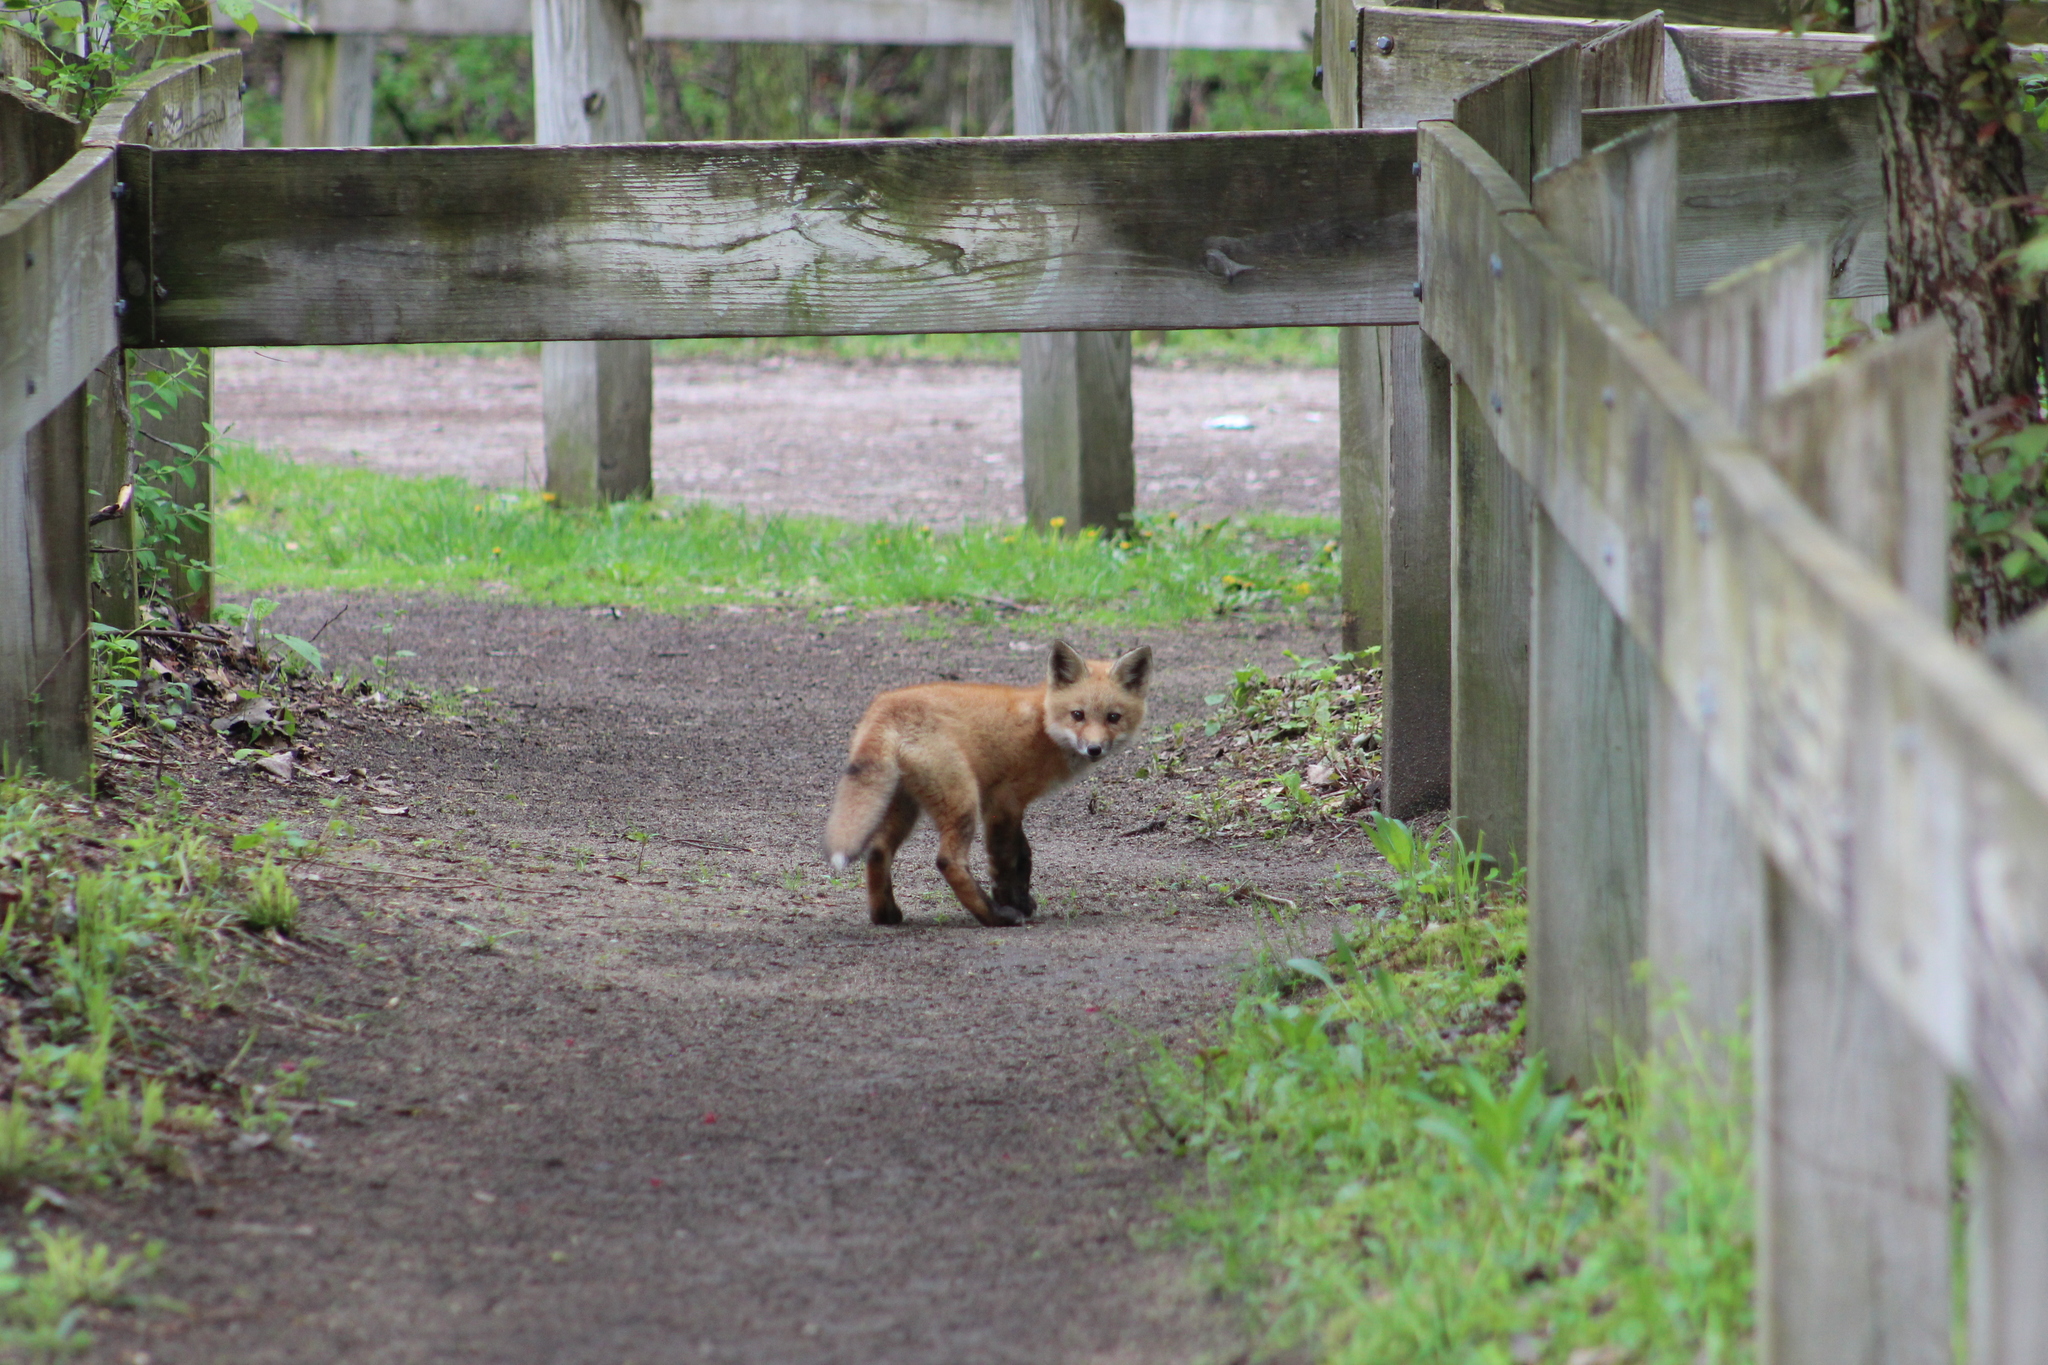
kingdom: Animalia
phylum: Chordata
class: Mammalia
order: Carnivora
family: Canidae
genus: Vulpes
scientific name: Vulpes vulpes
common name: Red fox
